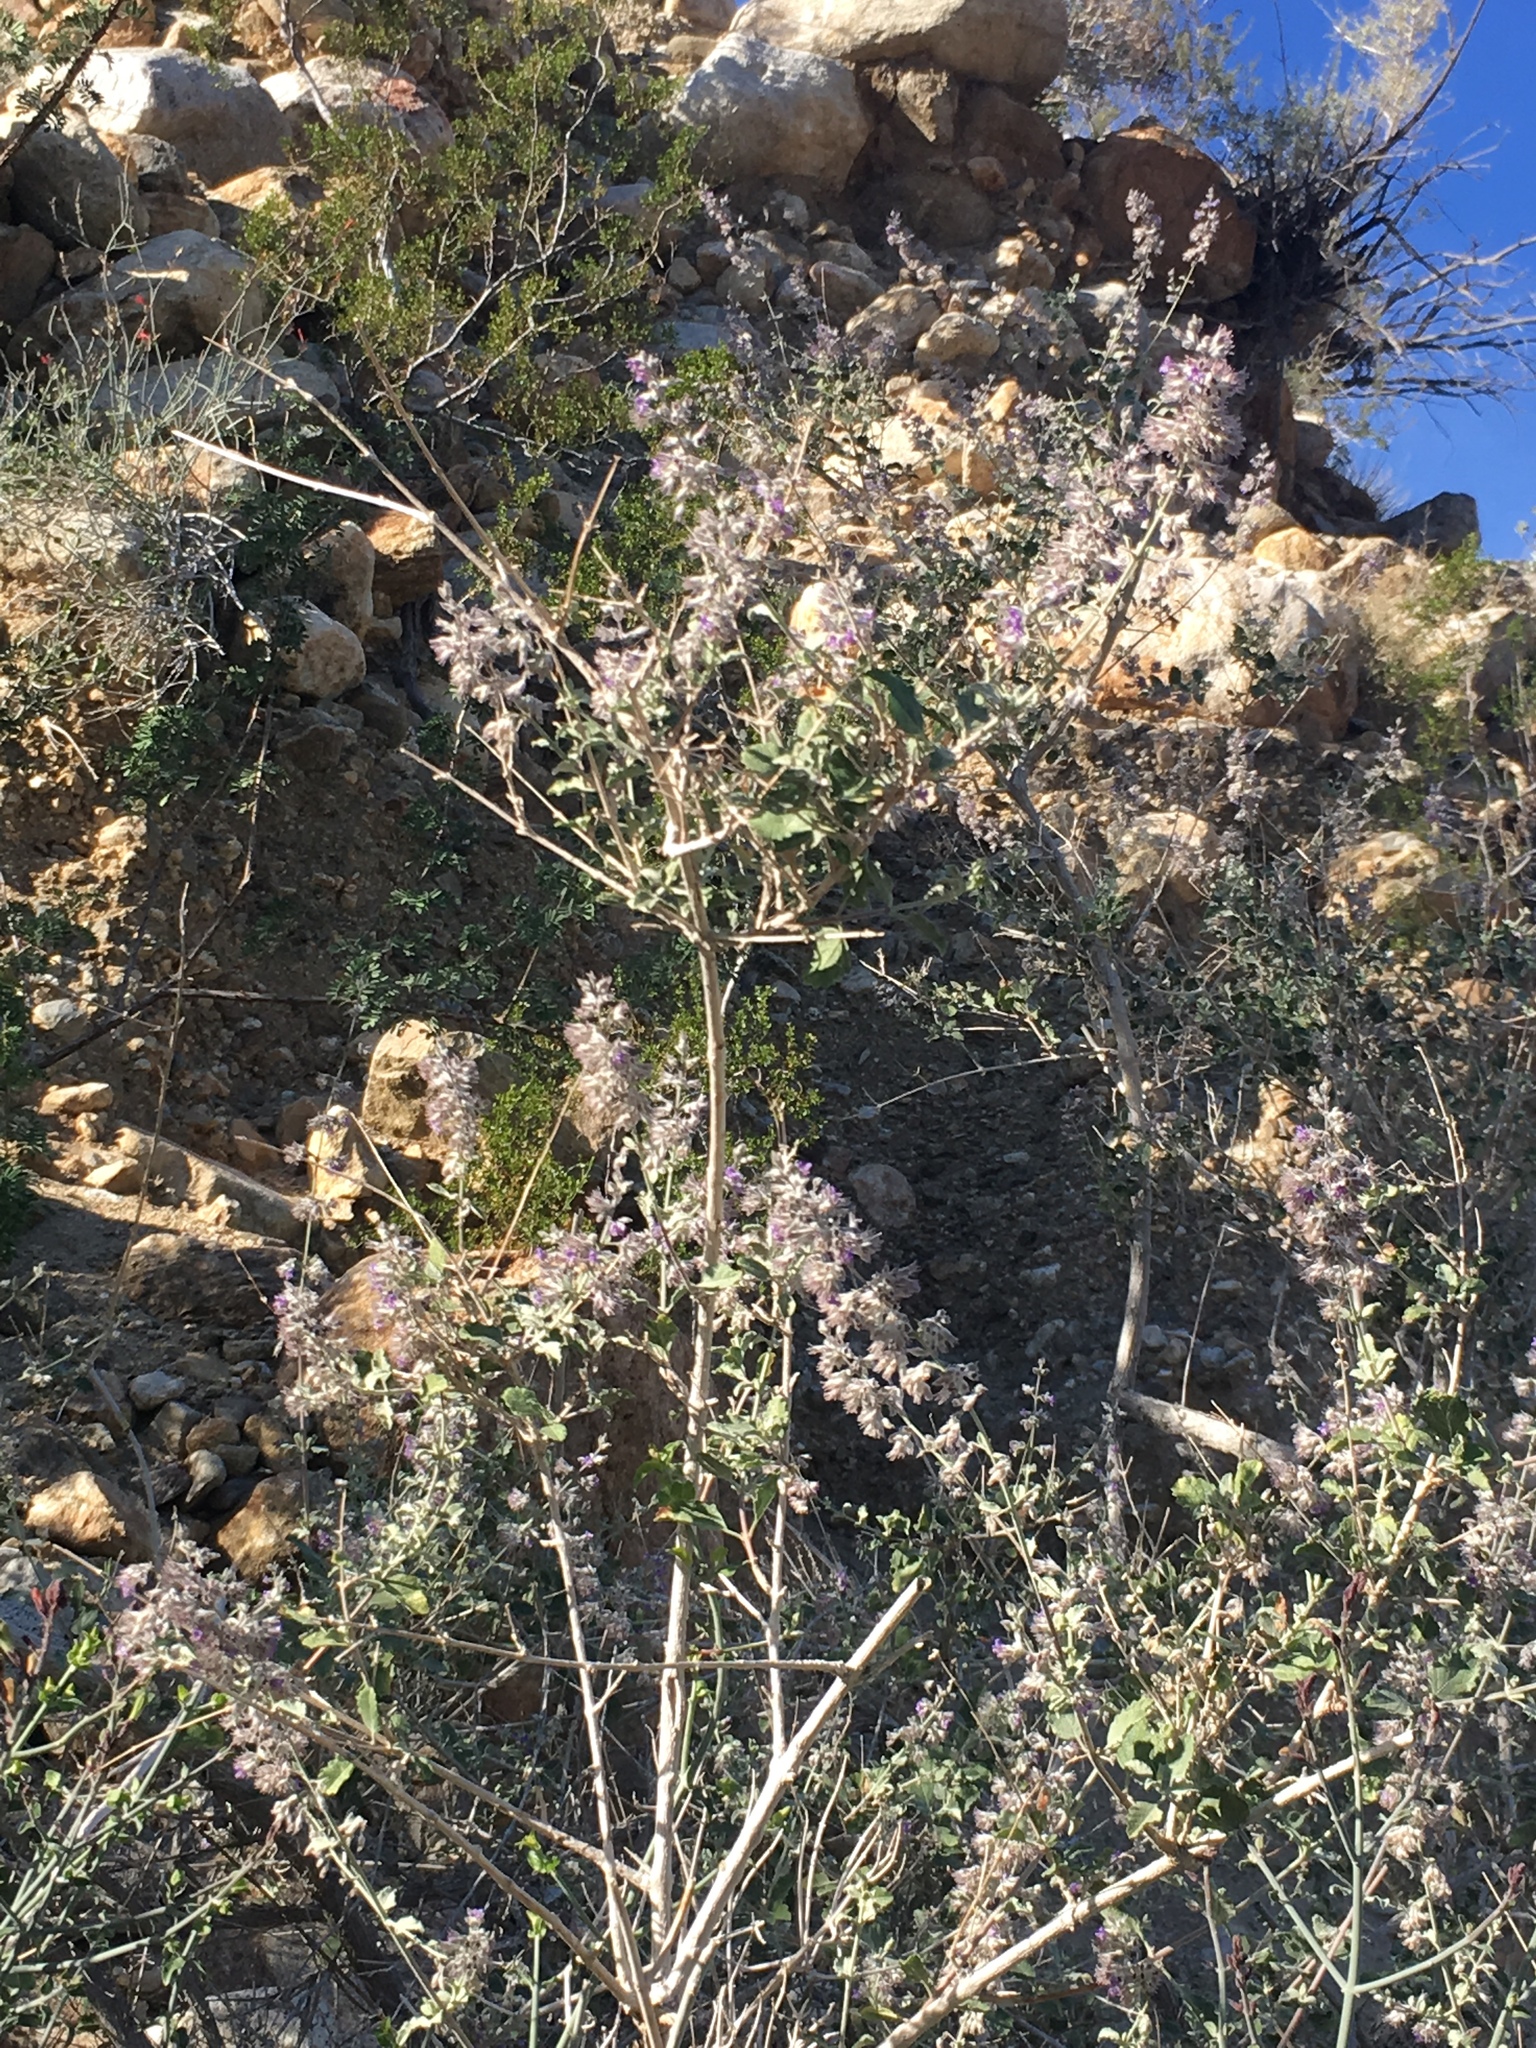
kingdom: Plantae
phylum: Tracheophyta
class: Magnoliopsida
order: Lamiales
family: Lamiaceae
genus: Condea
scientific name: Condea emoryi
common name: Chia
